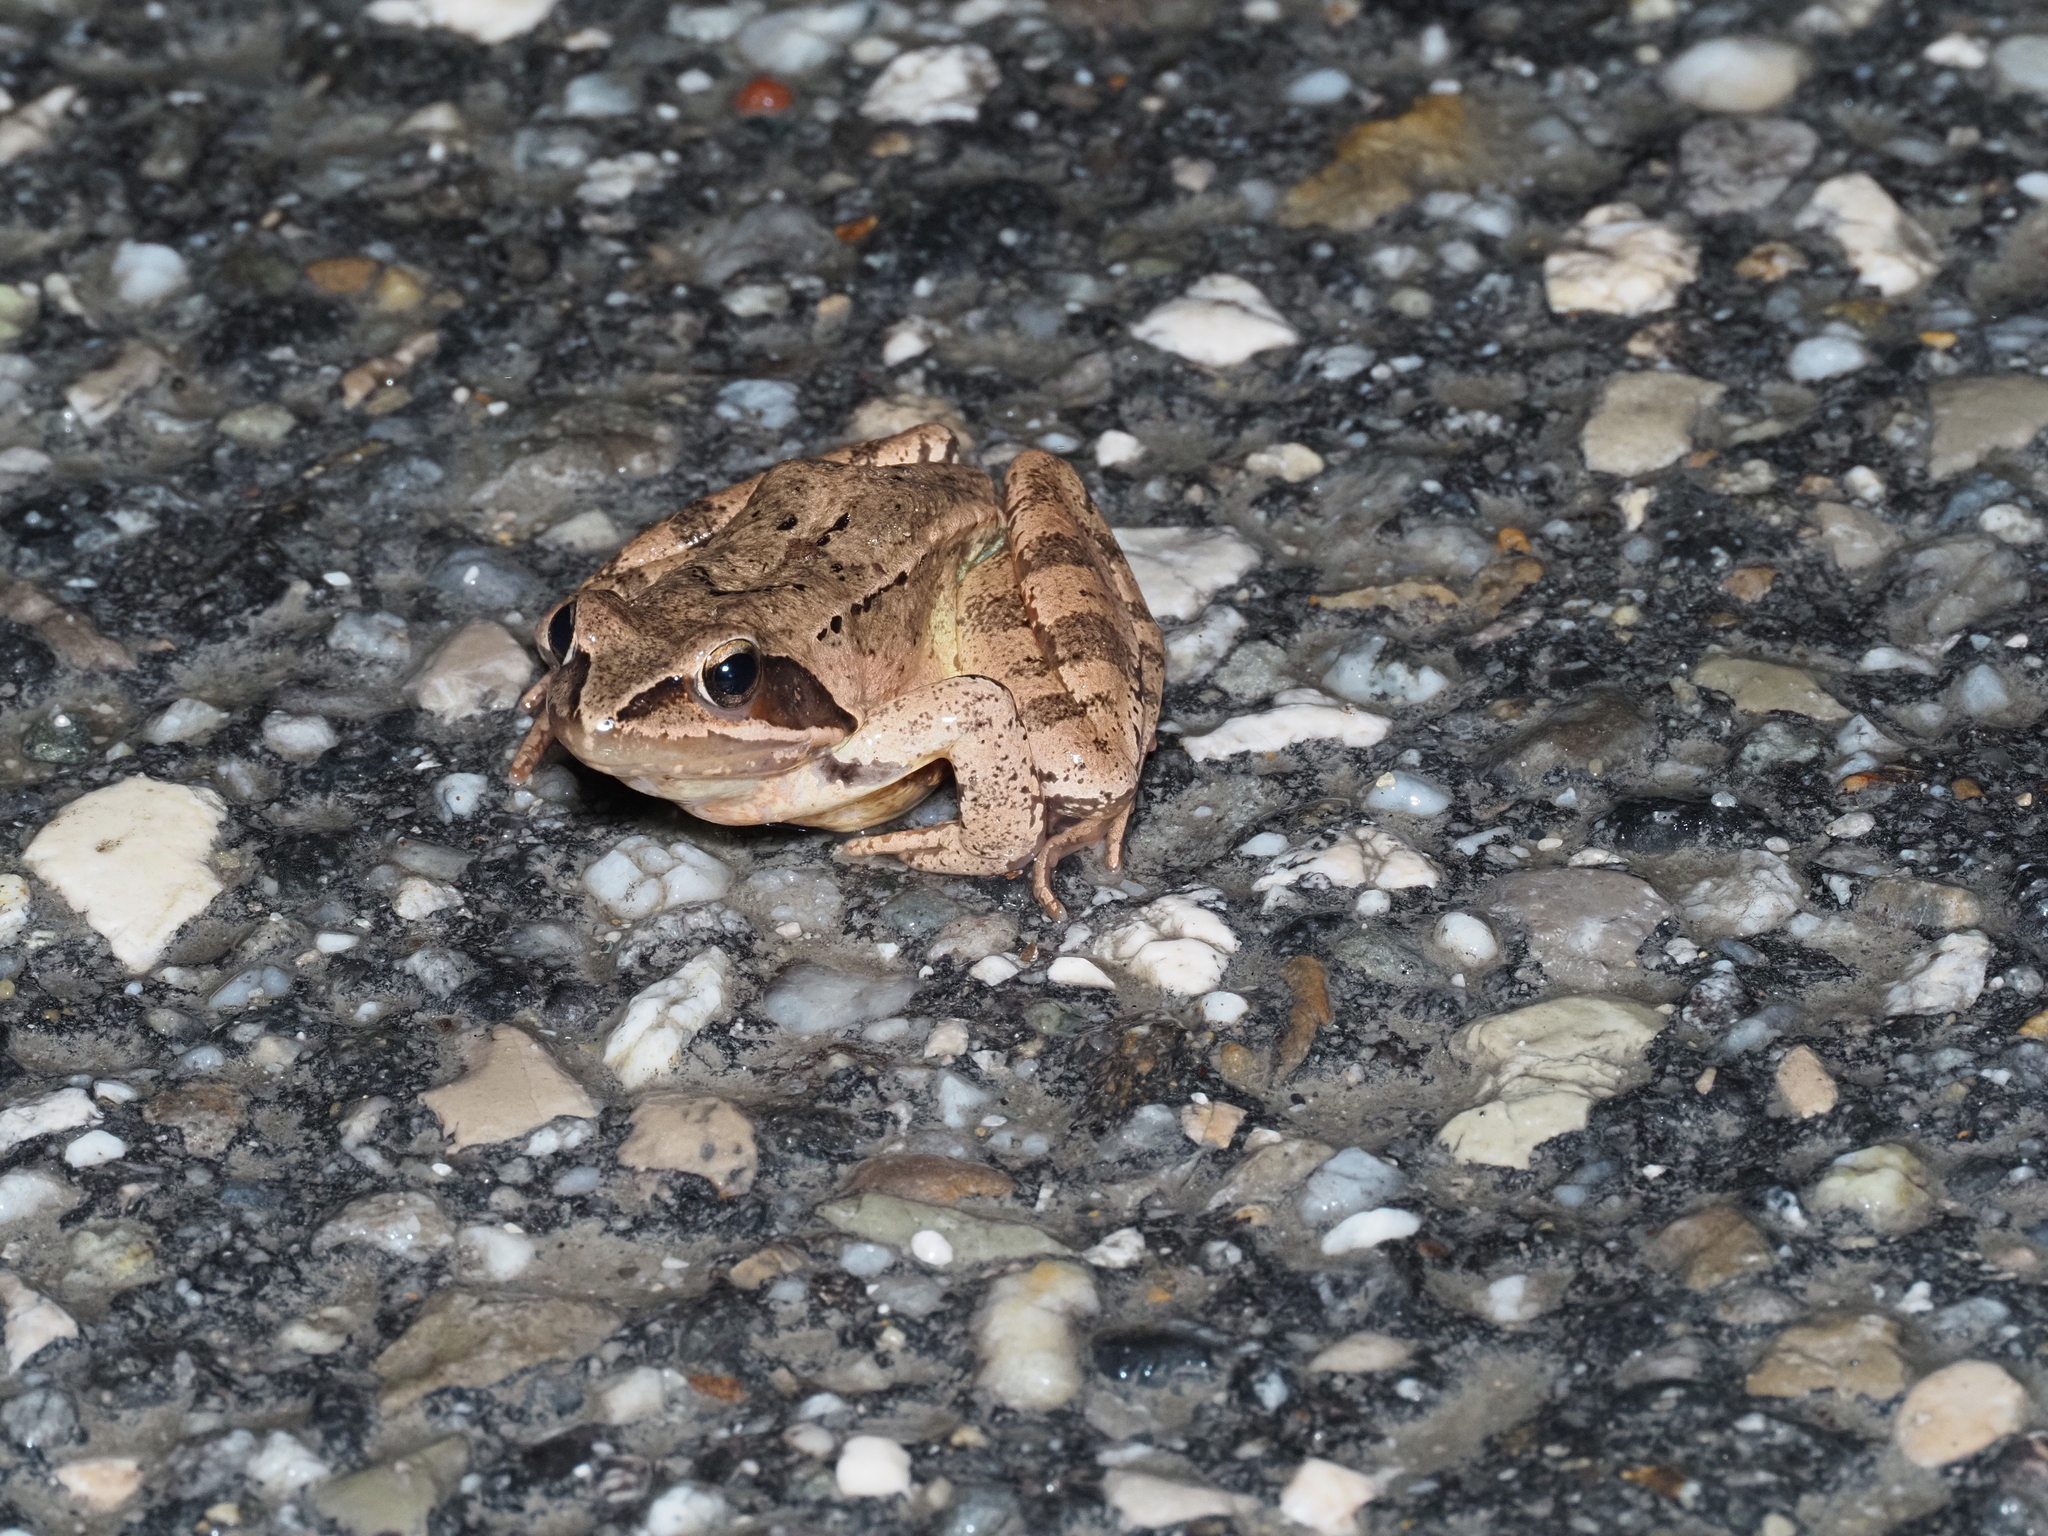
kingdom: Animalia
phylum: Chordata
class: Amphibia
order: Anura
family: Ranidae
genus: Rana
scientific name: Rana dalmatina
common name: Agile frog
